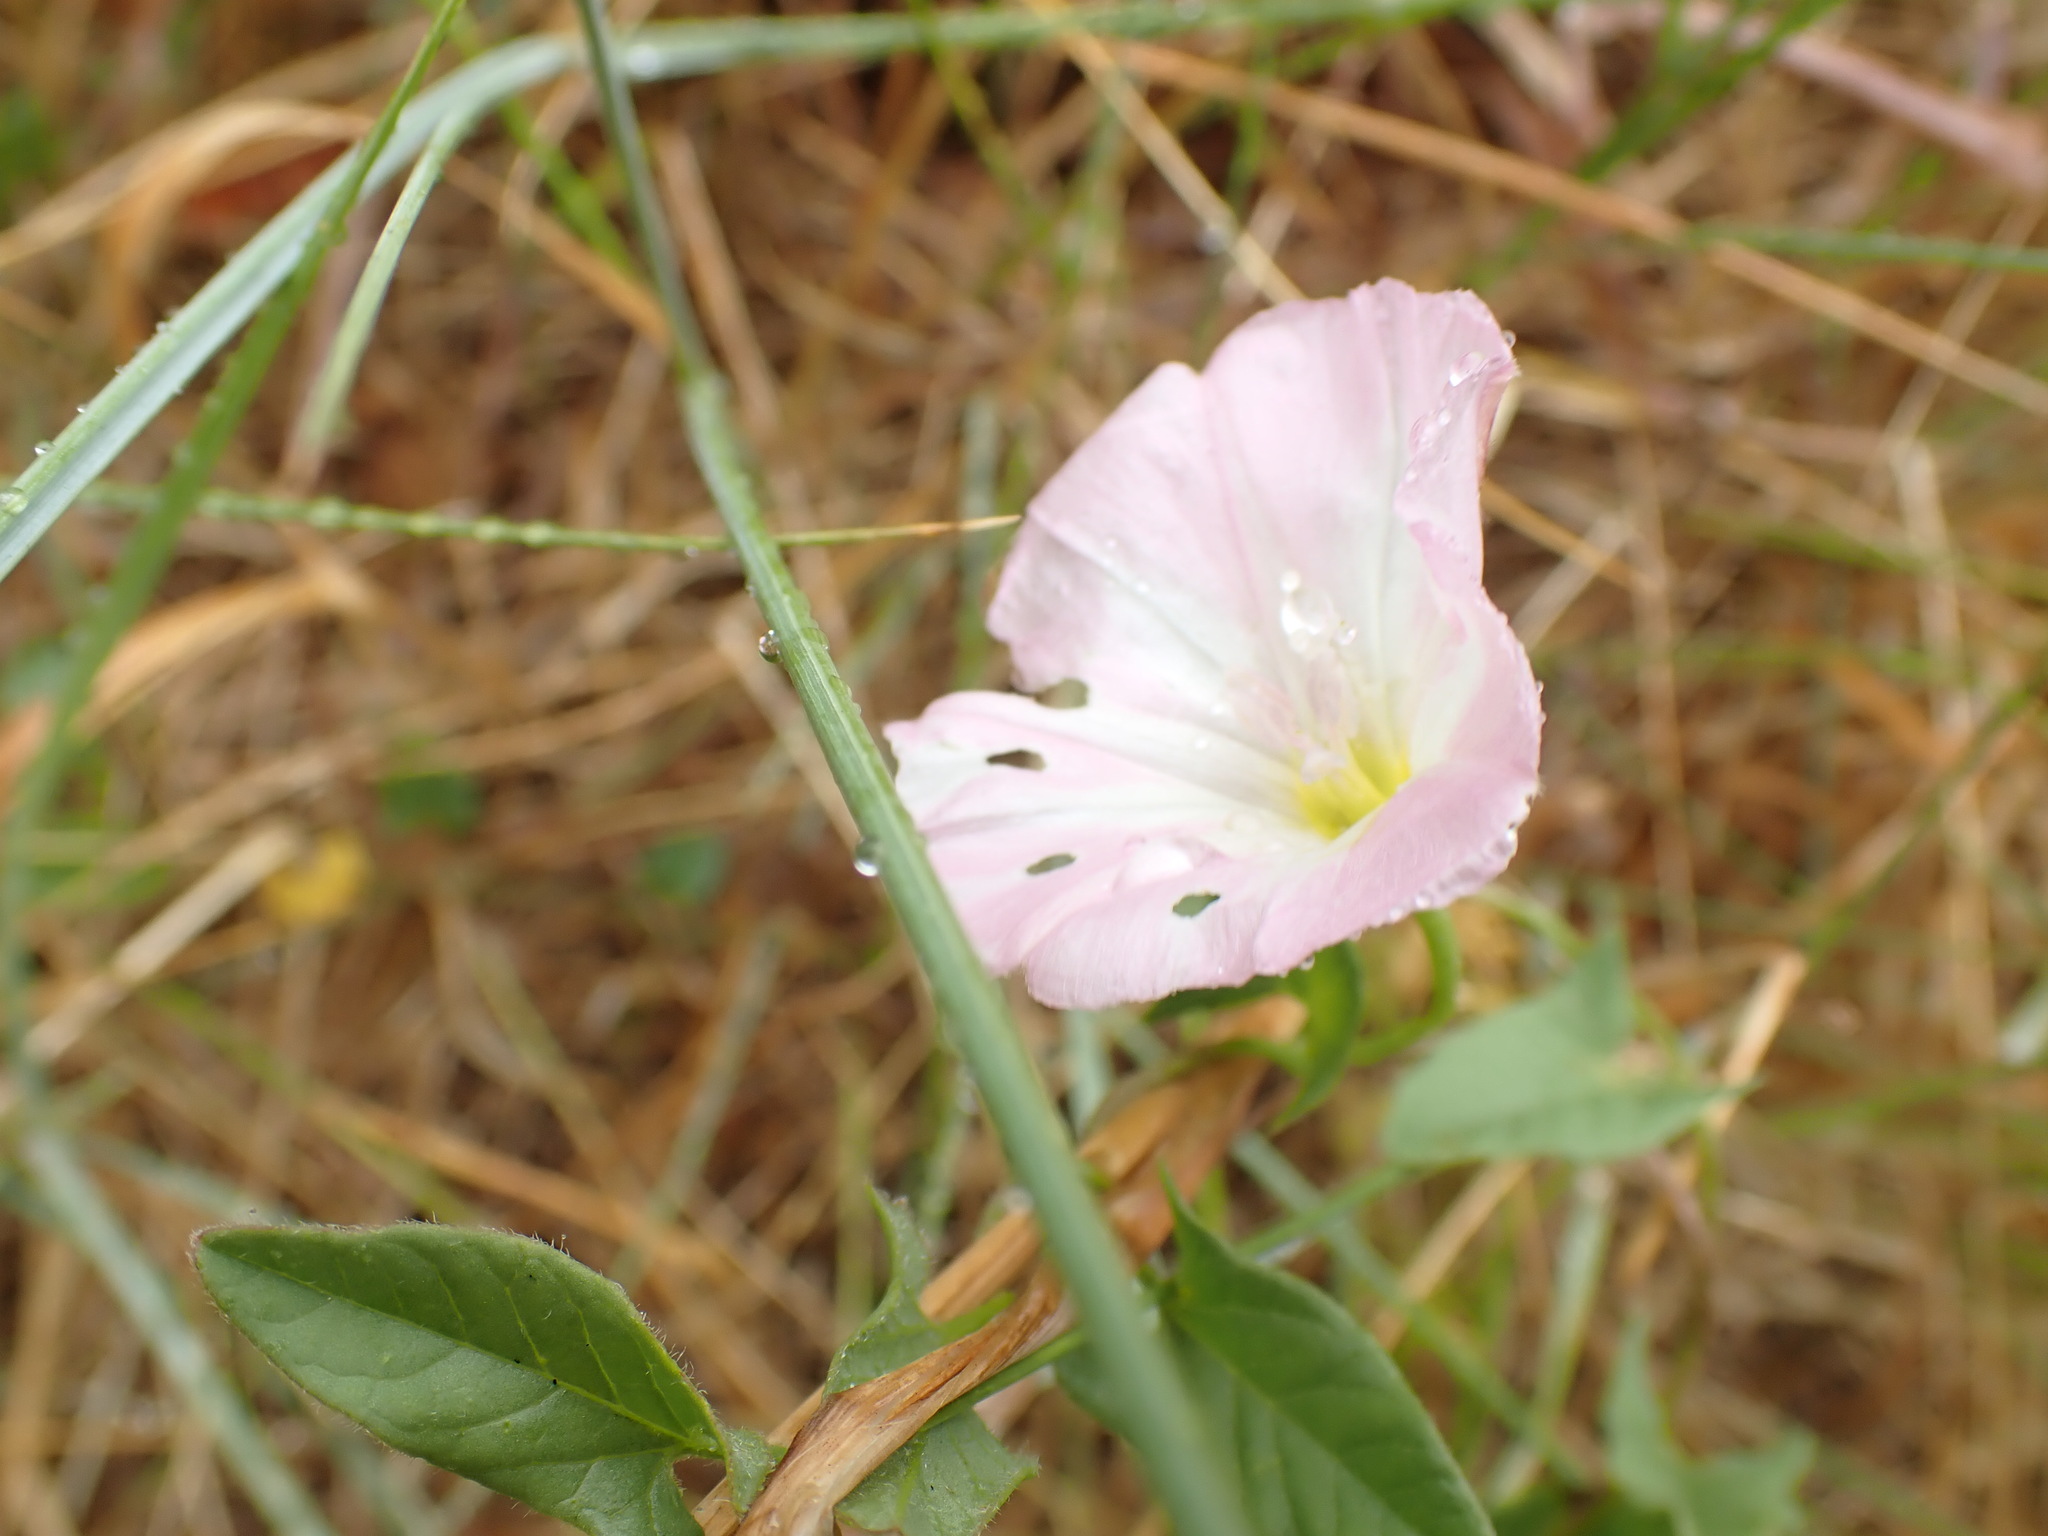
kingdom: Plantae
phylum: Tracheophyta
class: Magnoliopsida
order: Solanales
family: Convolvulaceae
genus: Convolvulus
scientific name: Convolvulus arvensis
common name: Field bindweed
